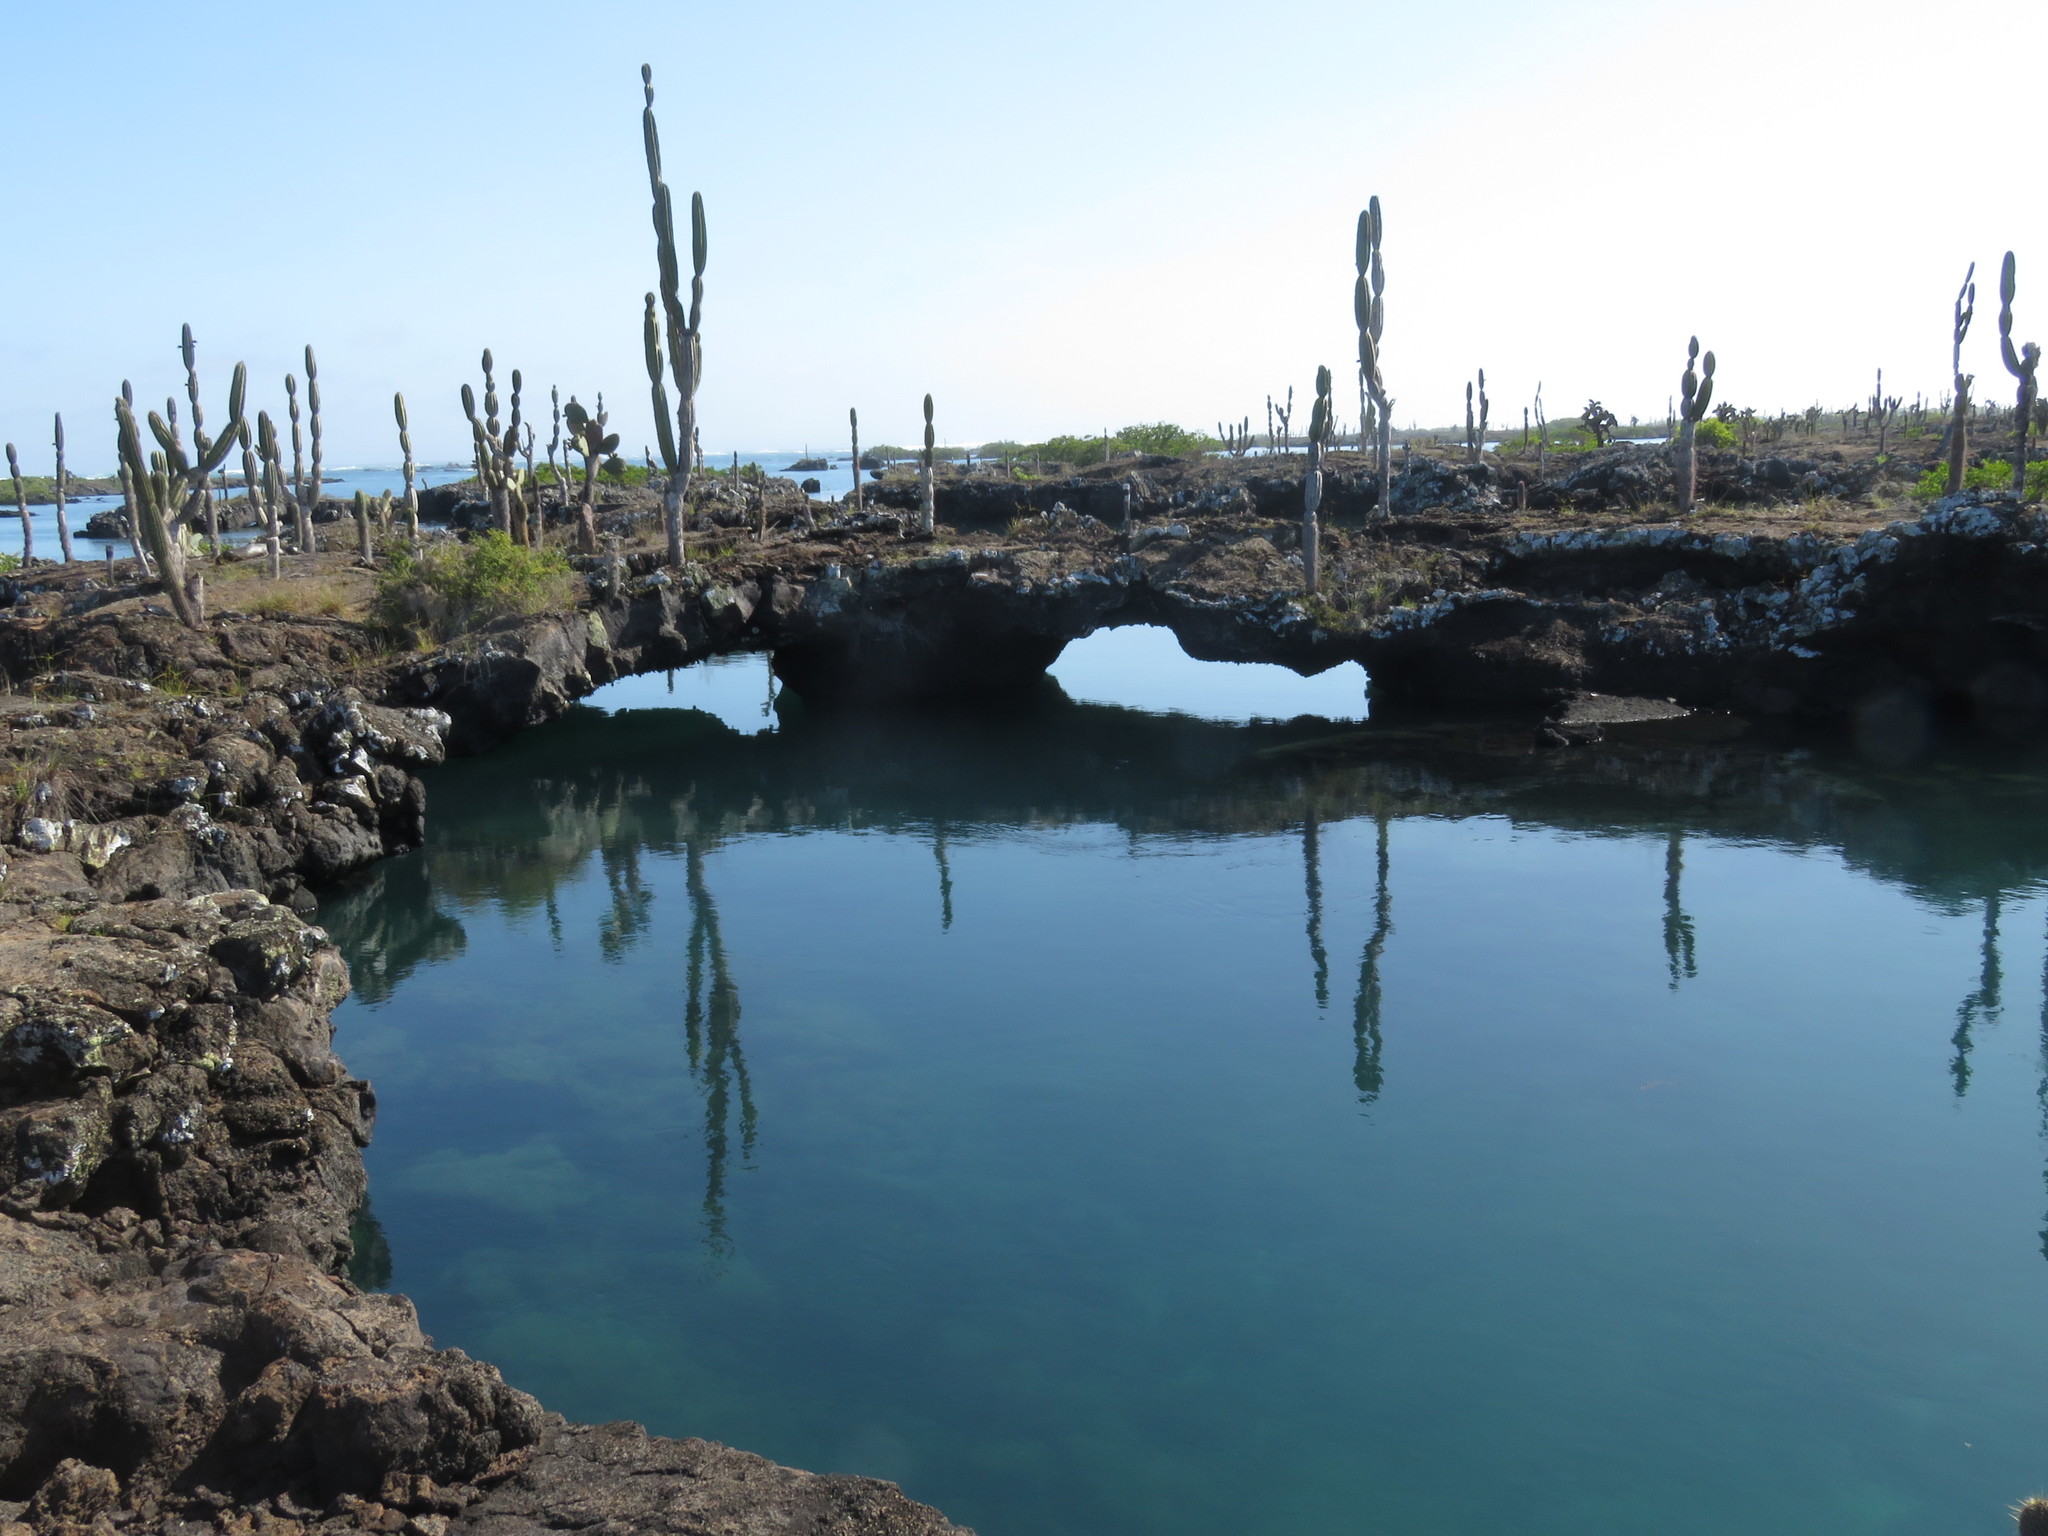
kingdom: Plantae
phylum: Tracheophyta
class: Magnoliopsida
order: Caryophyllales
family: Cactaceae
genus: Jasminocereus
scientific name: Jasminocereus thouarsii
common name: Candelabra cactus
